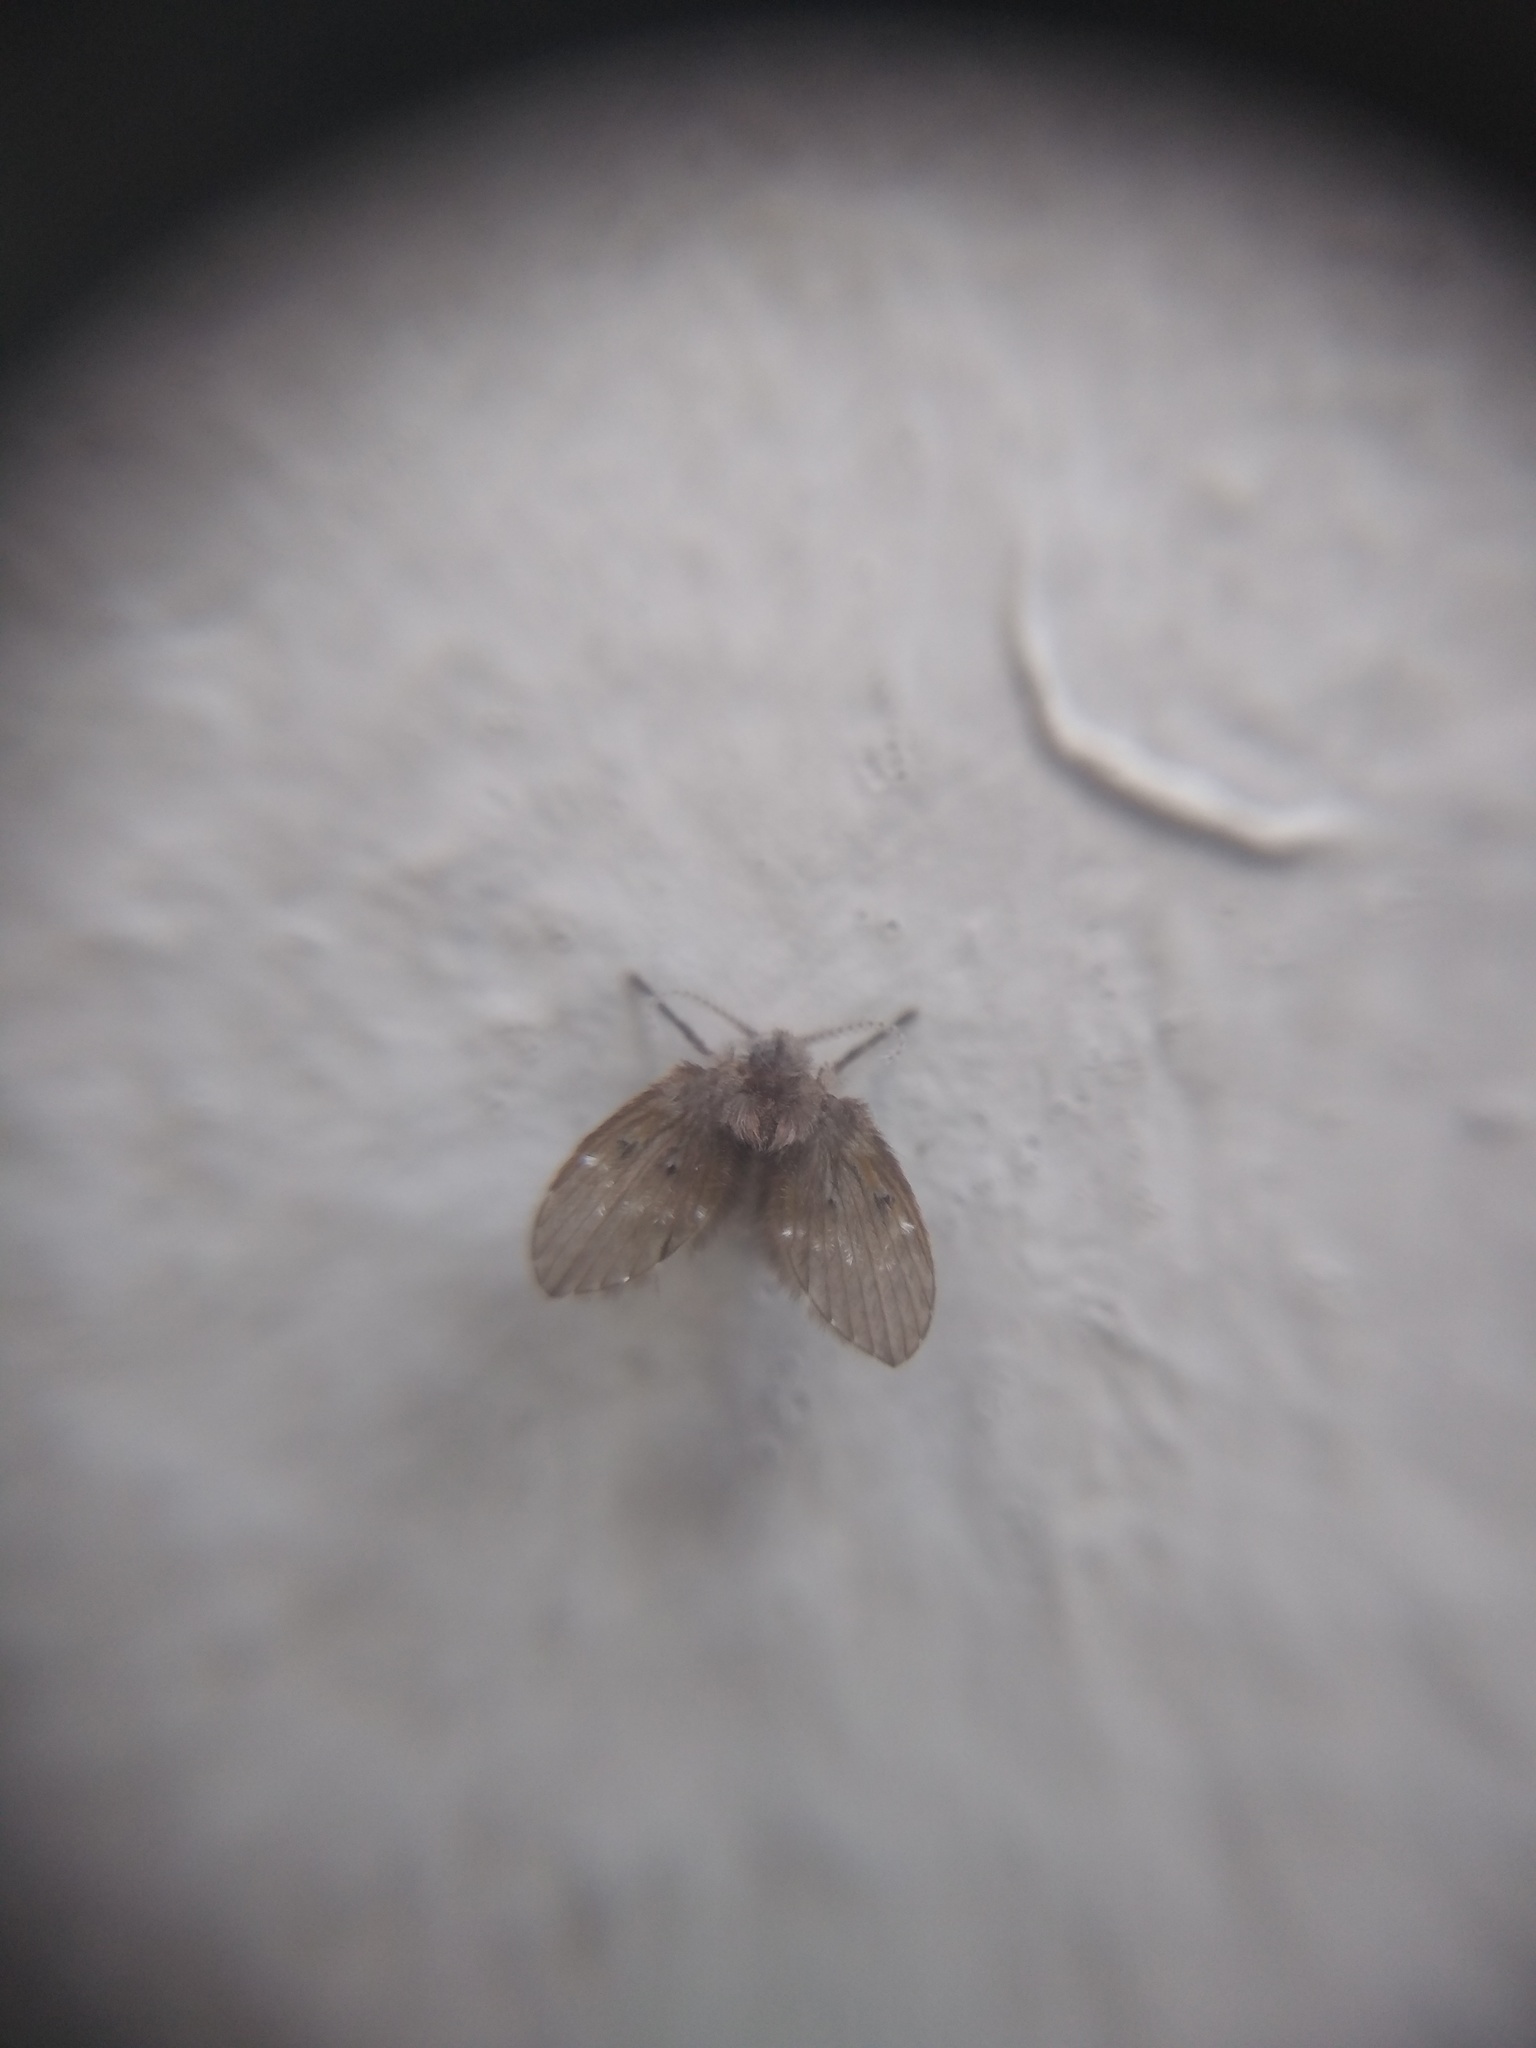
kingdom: Animalia
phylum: Arthropoda
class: Insecta
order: Diptera
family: Psychodidae
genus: Clogmia
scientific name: Clogmia albipunctatus
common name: White-spotted moth fly
